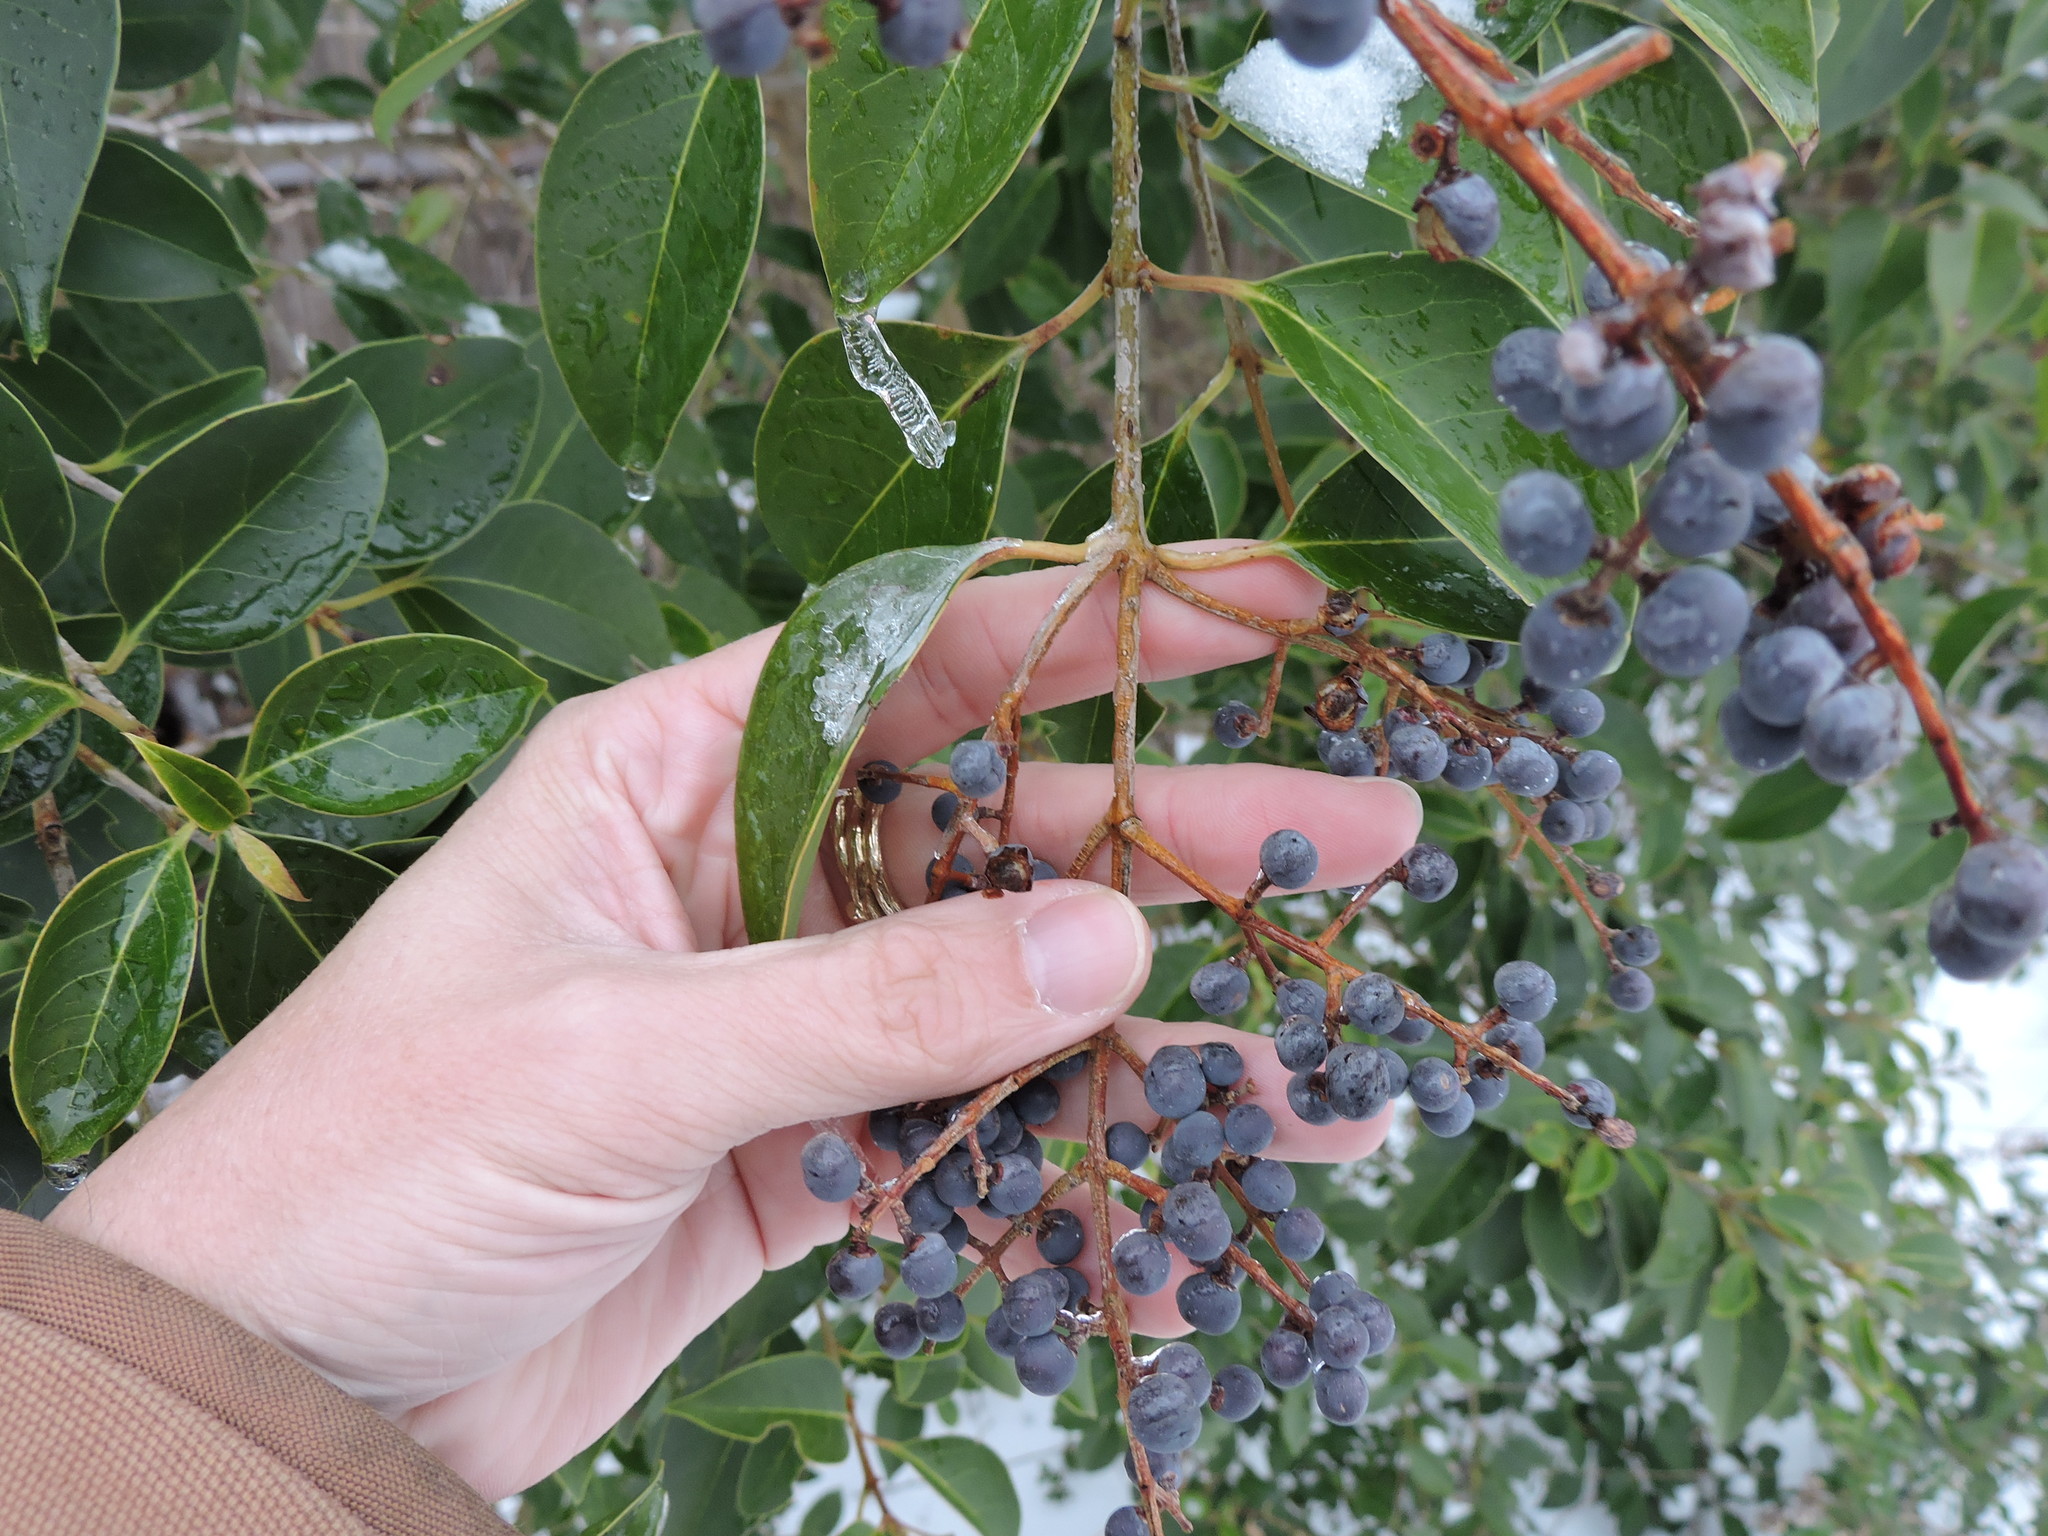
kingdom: Plantae
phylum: Tracheophyta
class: Magnoliopsida
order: Lamiales
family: Oleaceae
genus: Ligustrum
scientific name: Ligustrum lucidum
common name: Glossy privet
